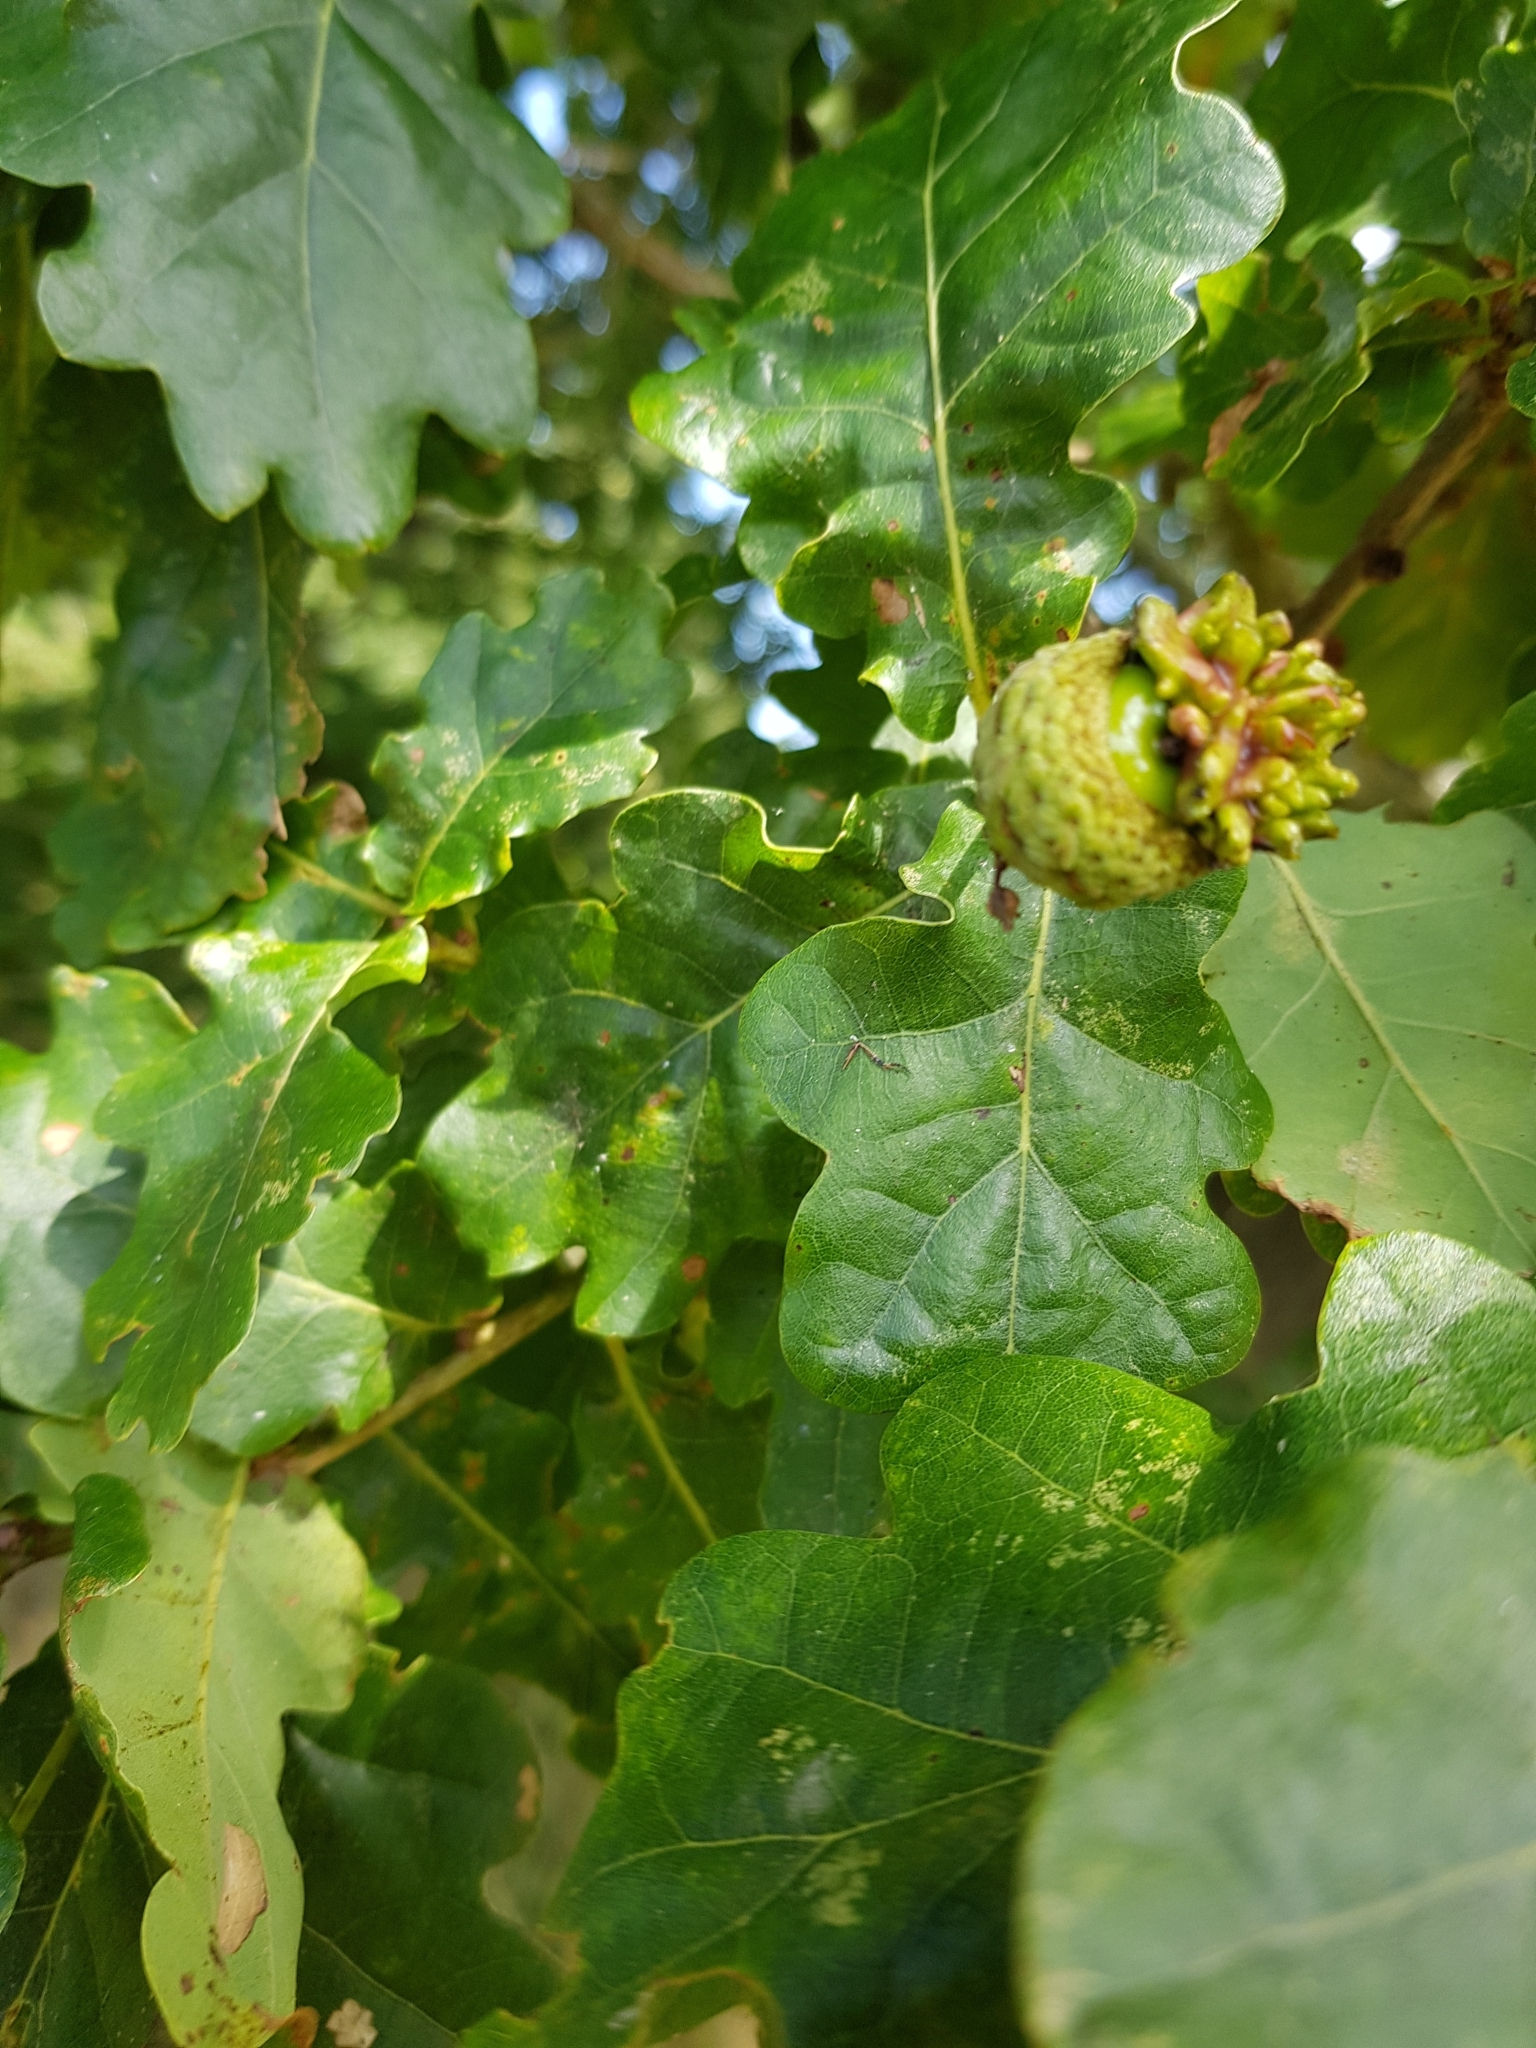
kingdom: Animalia
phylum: Arthropoda
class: Insecta
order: Hymenoptera
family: Cynipidae
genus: Andricus
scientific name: Andricus quercuscalicis
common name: Knopper gall
